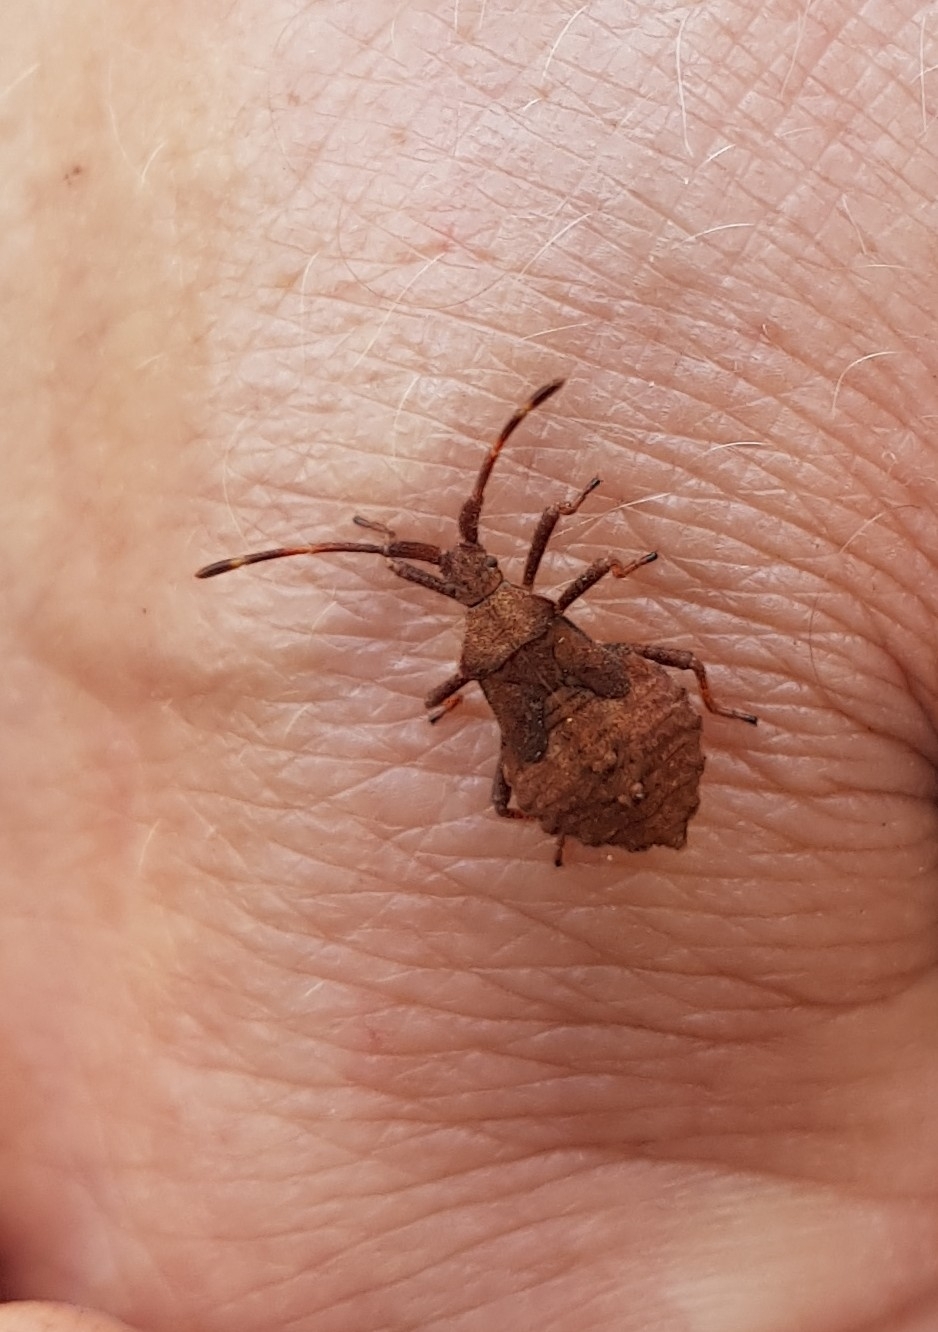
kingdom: Animalia
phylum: Arthropoda
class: Insecta
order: Hemiptera
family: Coreidae
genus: Coreus
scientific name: Coreus marginatus
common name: Dock bug
